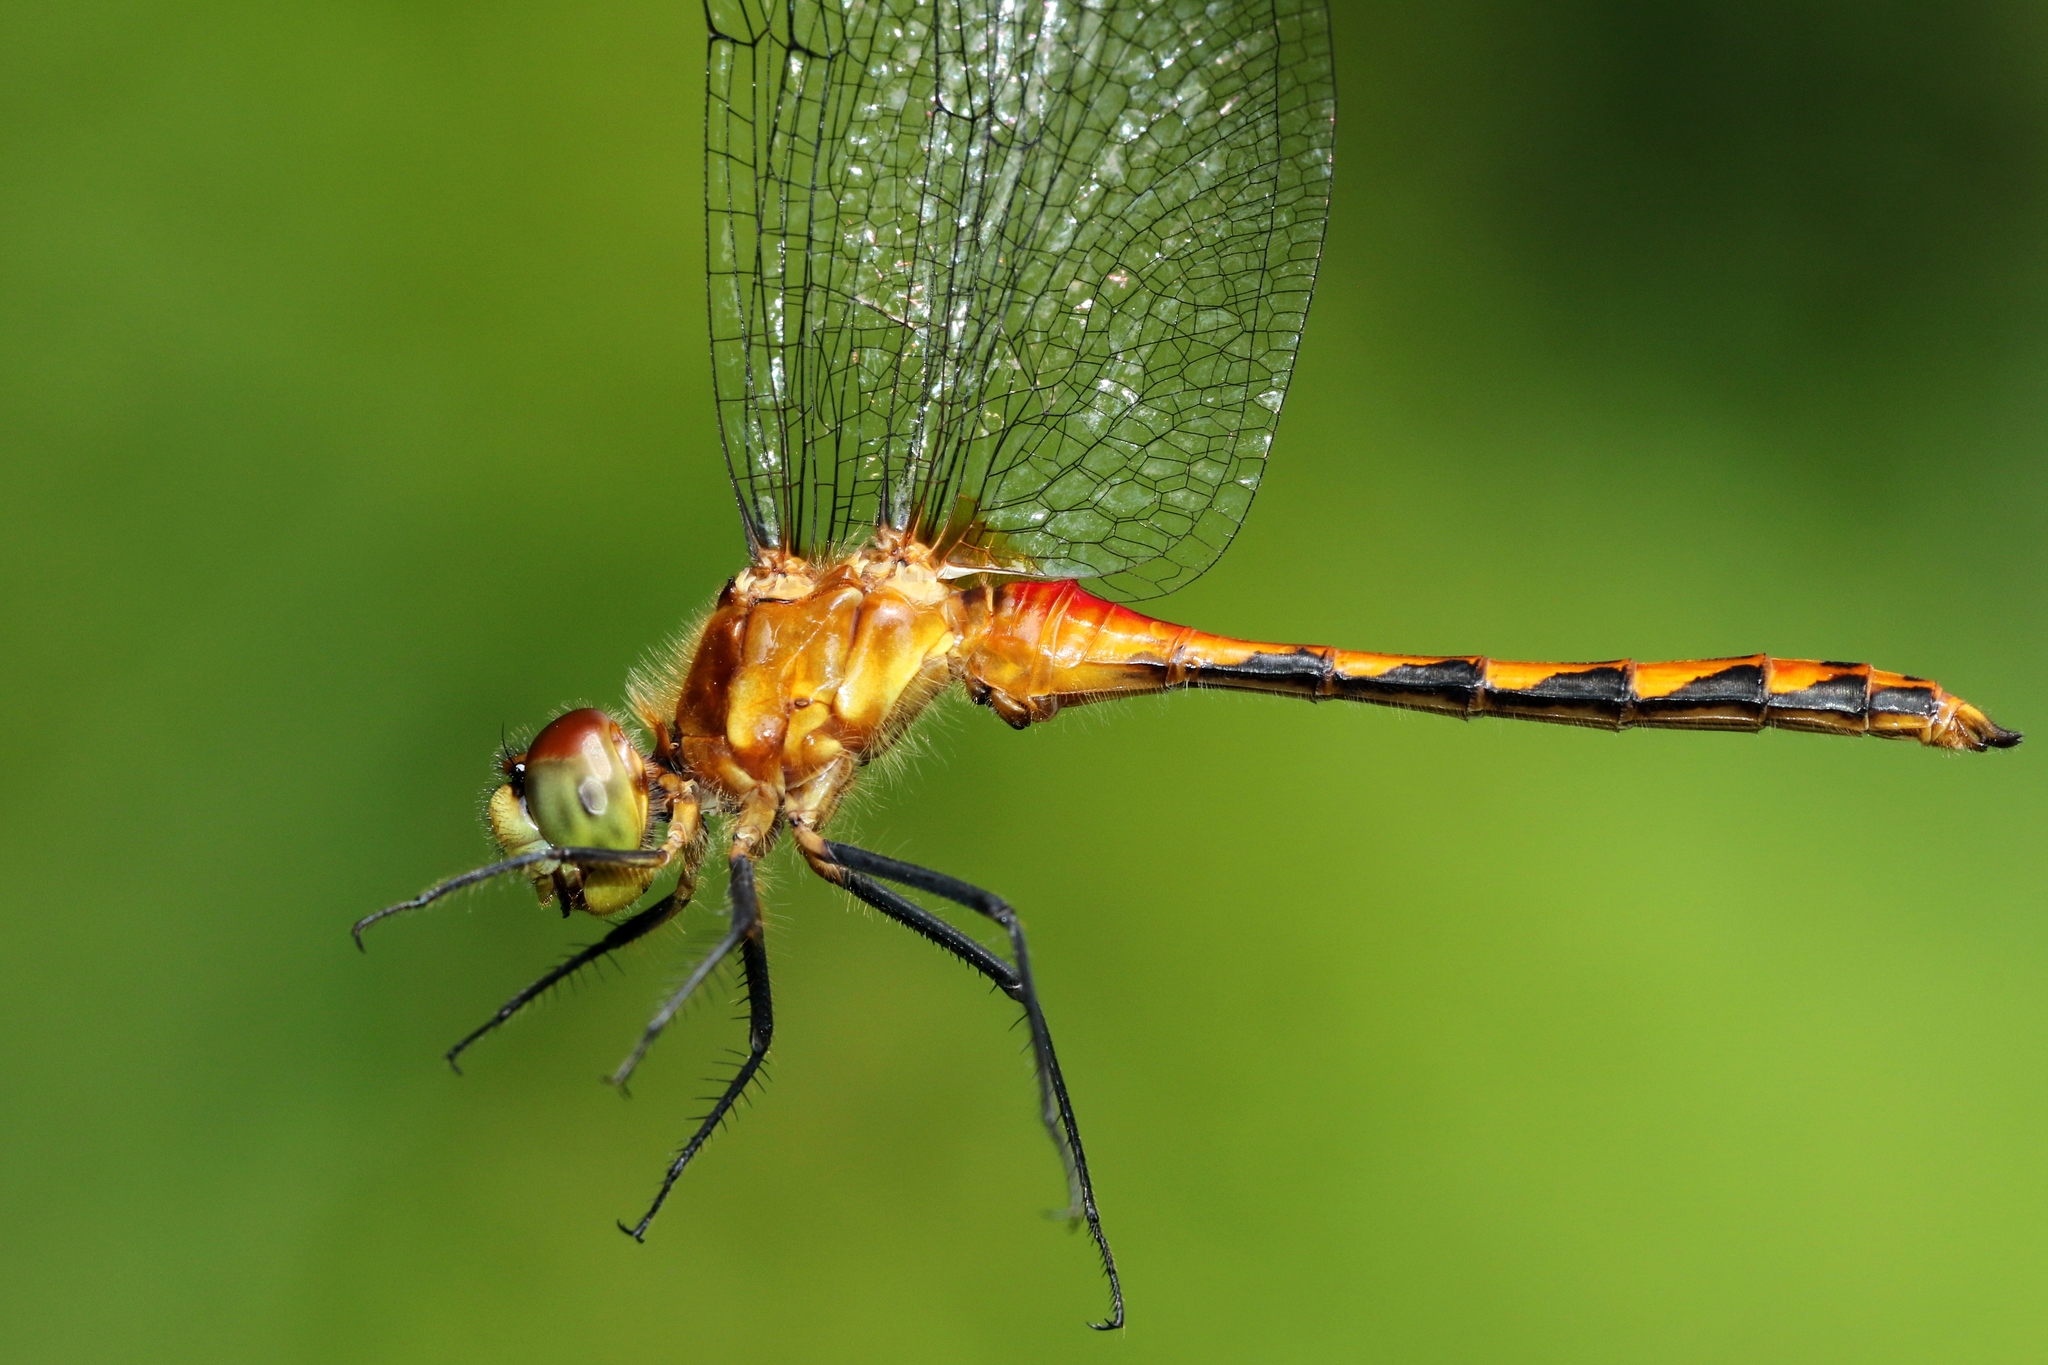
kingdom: Animalia
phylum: Arthropoda
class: Insecta
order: Odonata
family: Libellulidae
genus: Sympetrum
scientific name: Sympetrum obtrusum
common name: White-faced meadowhawk
